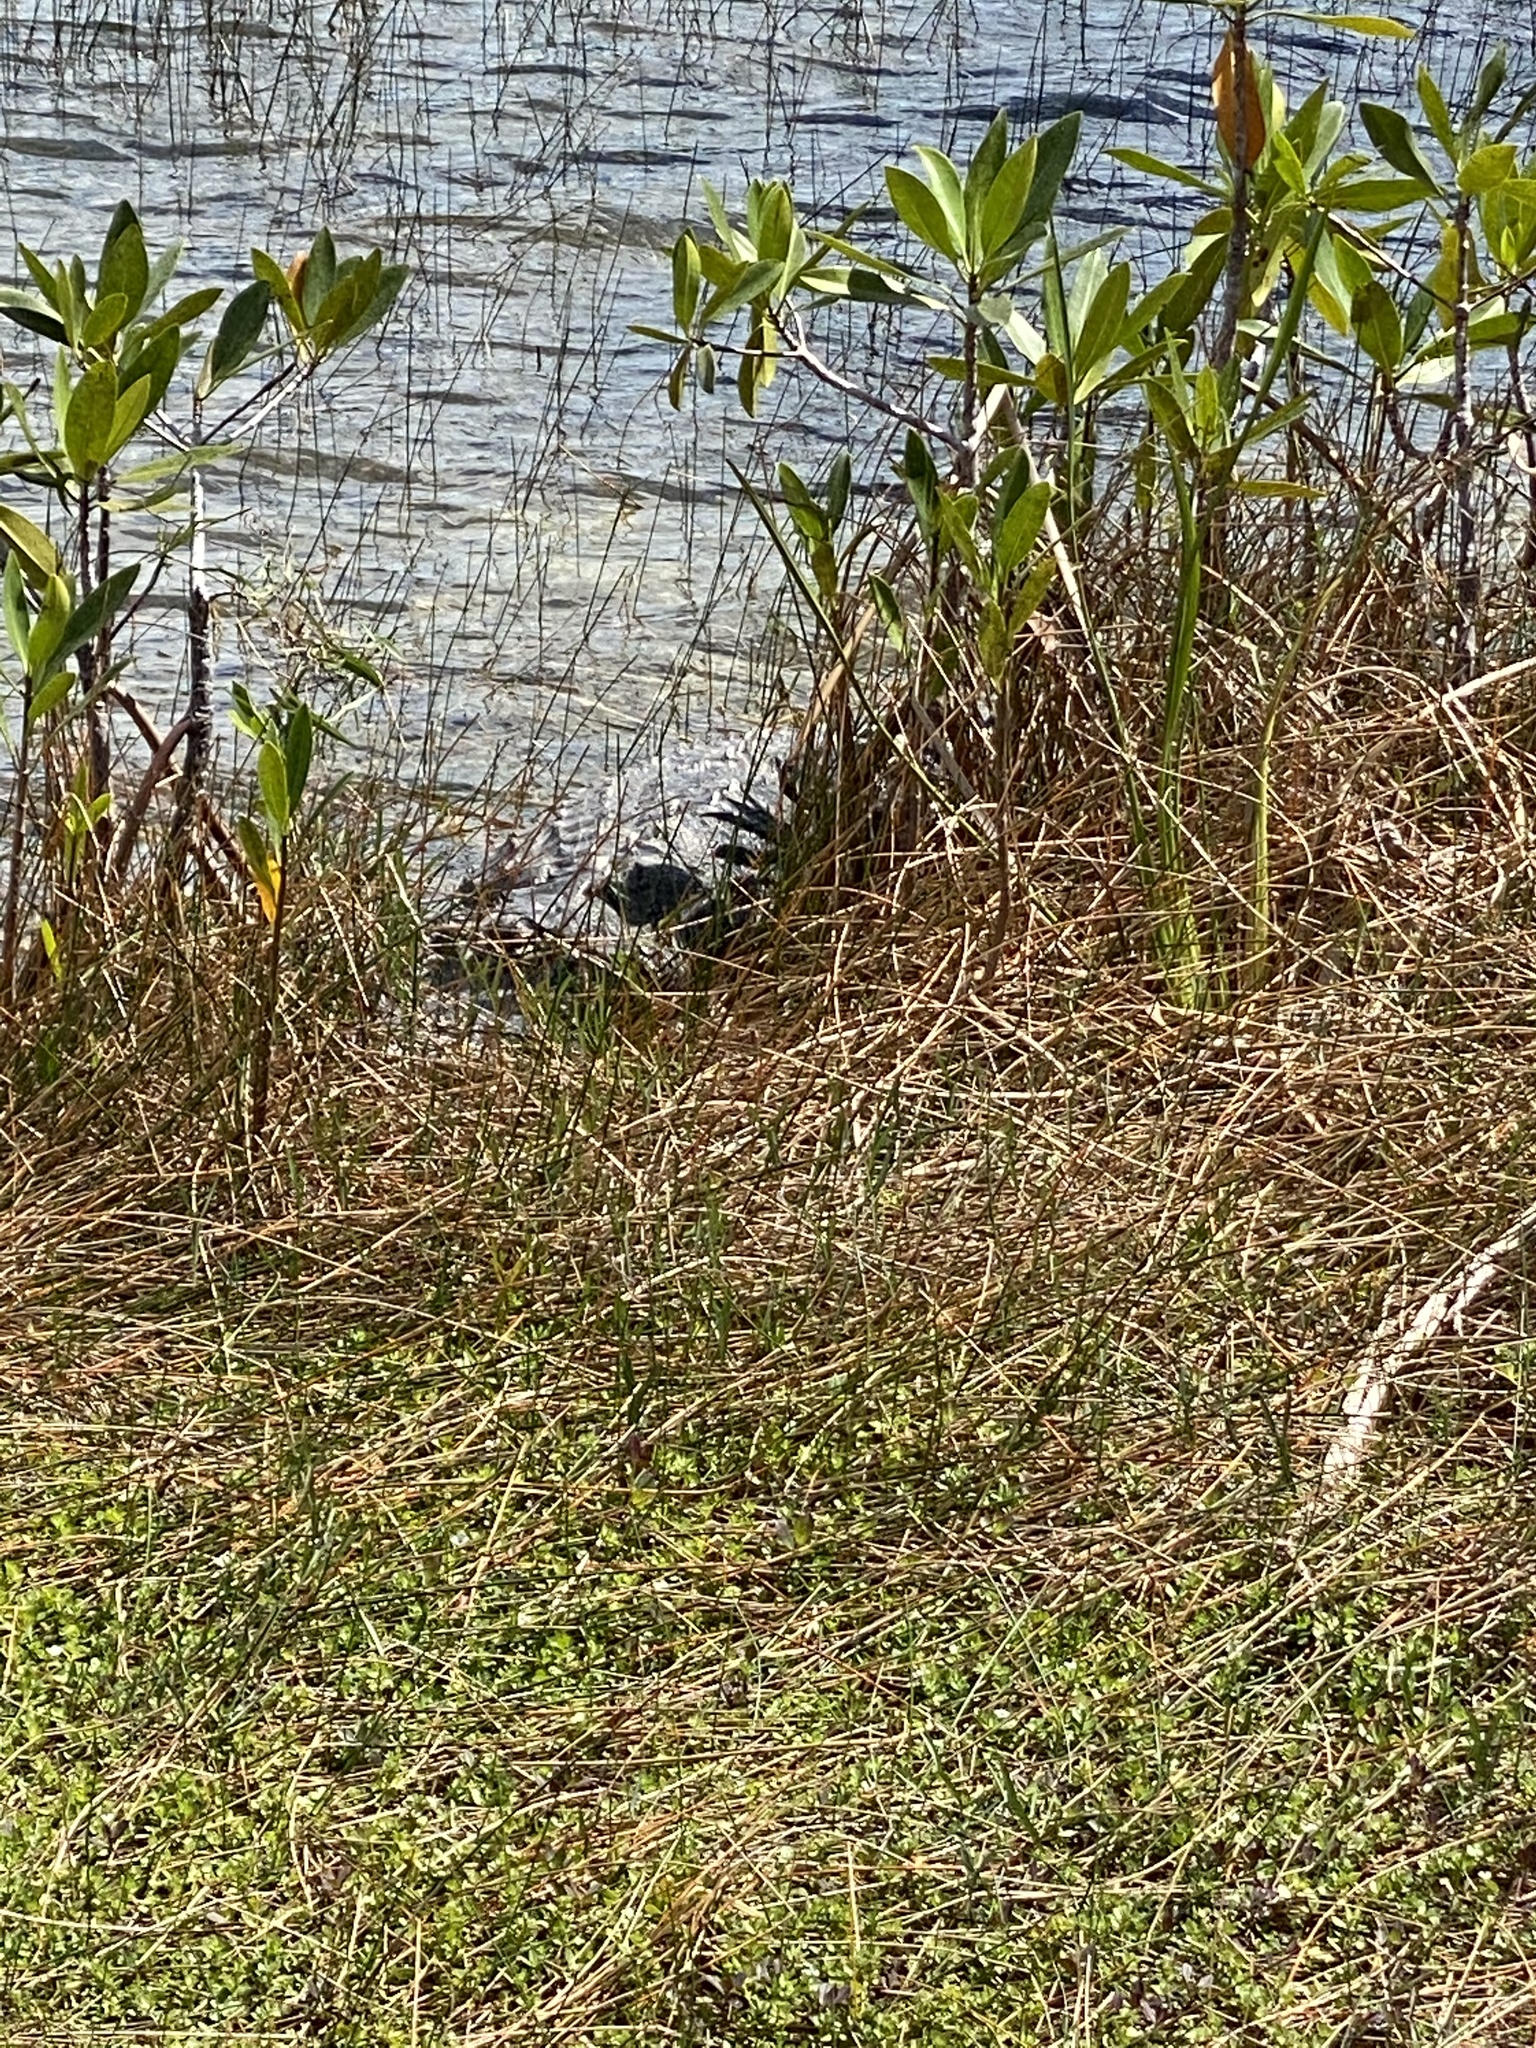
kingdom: Animalia
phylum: Chordata
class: Crocodylia
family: Alligatoridae
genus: Alligator
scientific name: Alligator mississippiensis
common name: American alligator
